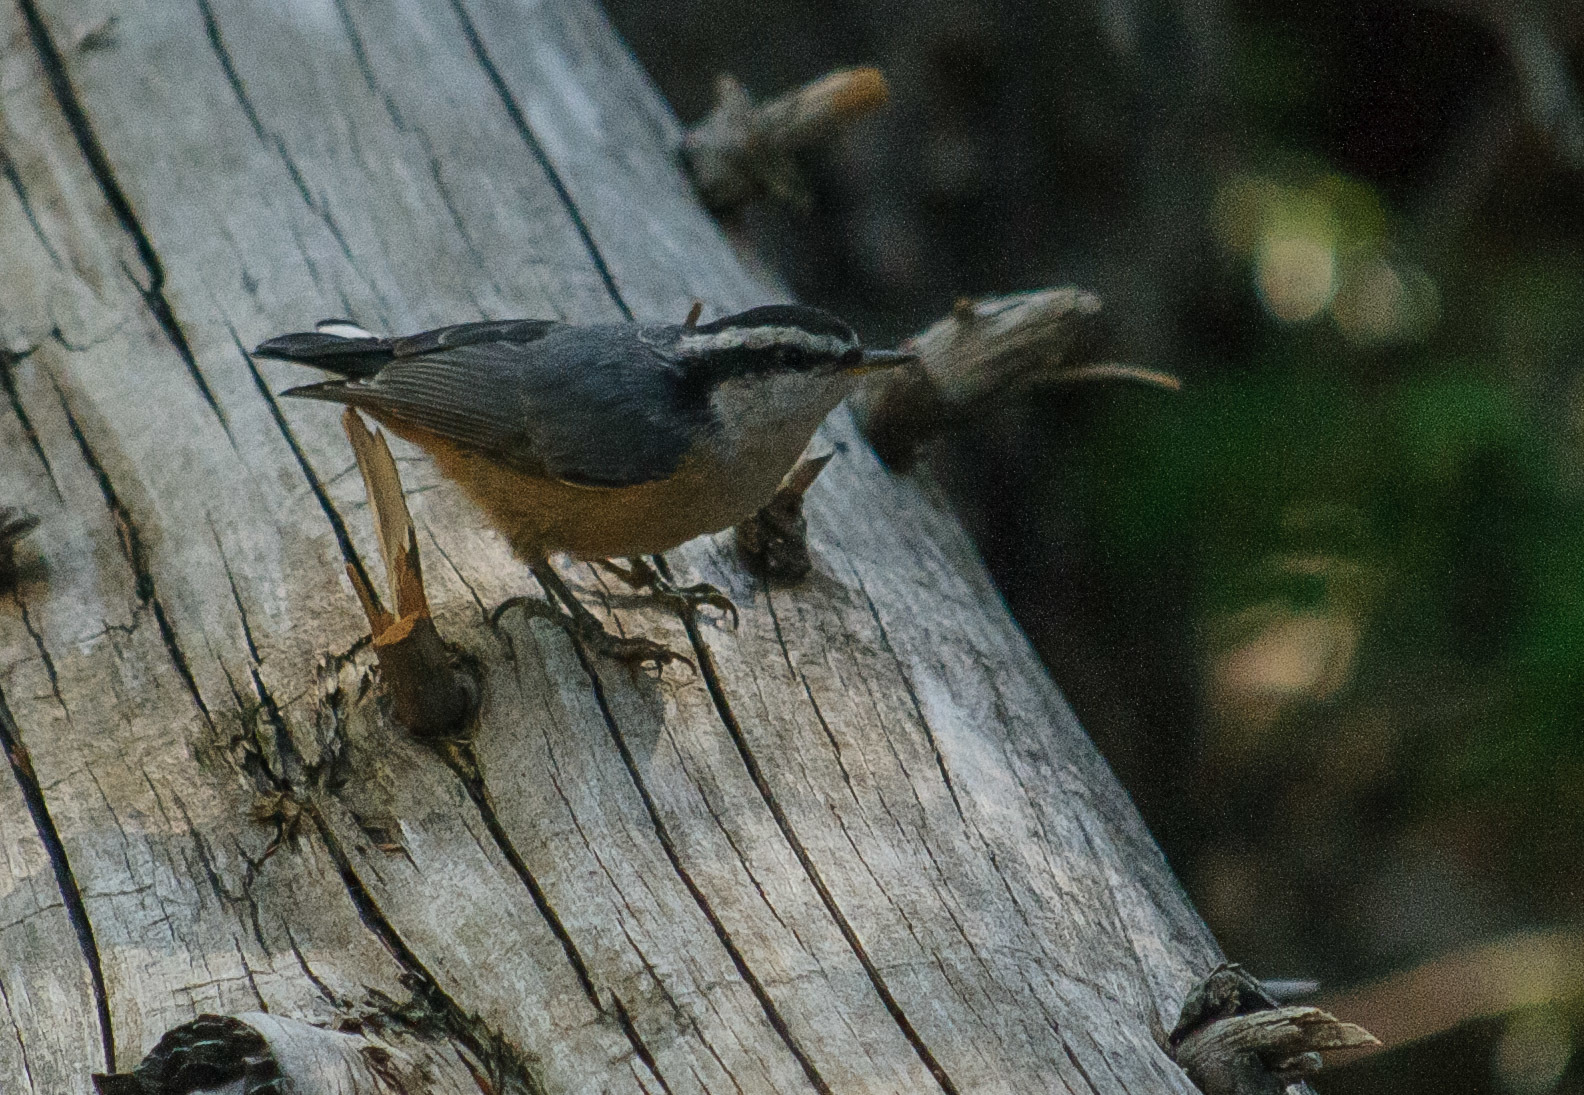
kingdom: Animalia
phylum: Chordata
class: Aves
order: Passeriformes
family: Sittidae
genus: Sitta
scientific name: Sitta canadensis
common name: Red-breasted nuthatch
